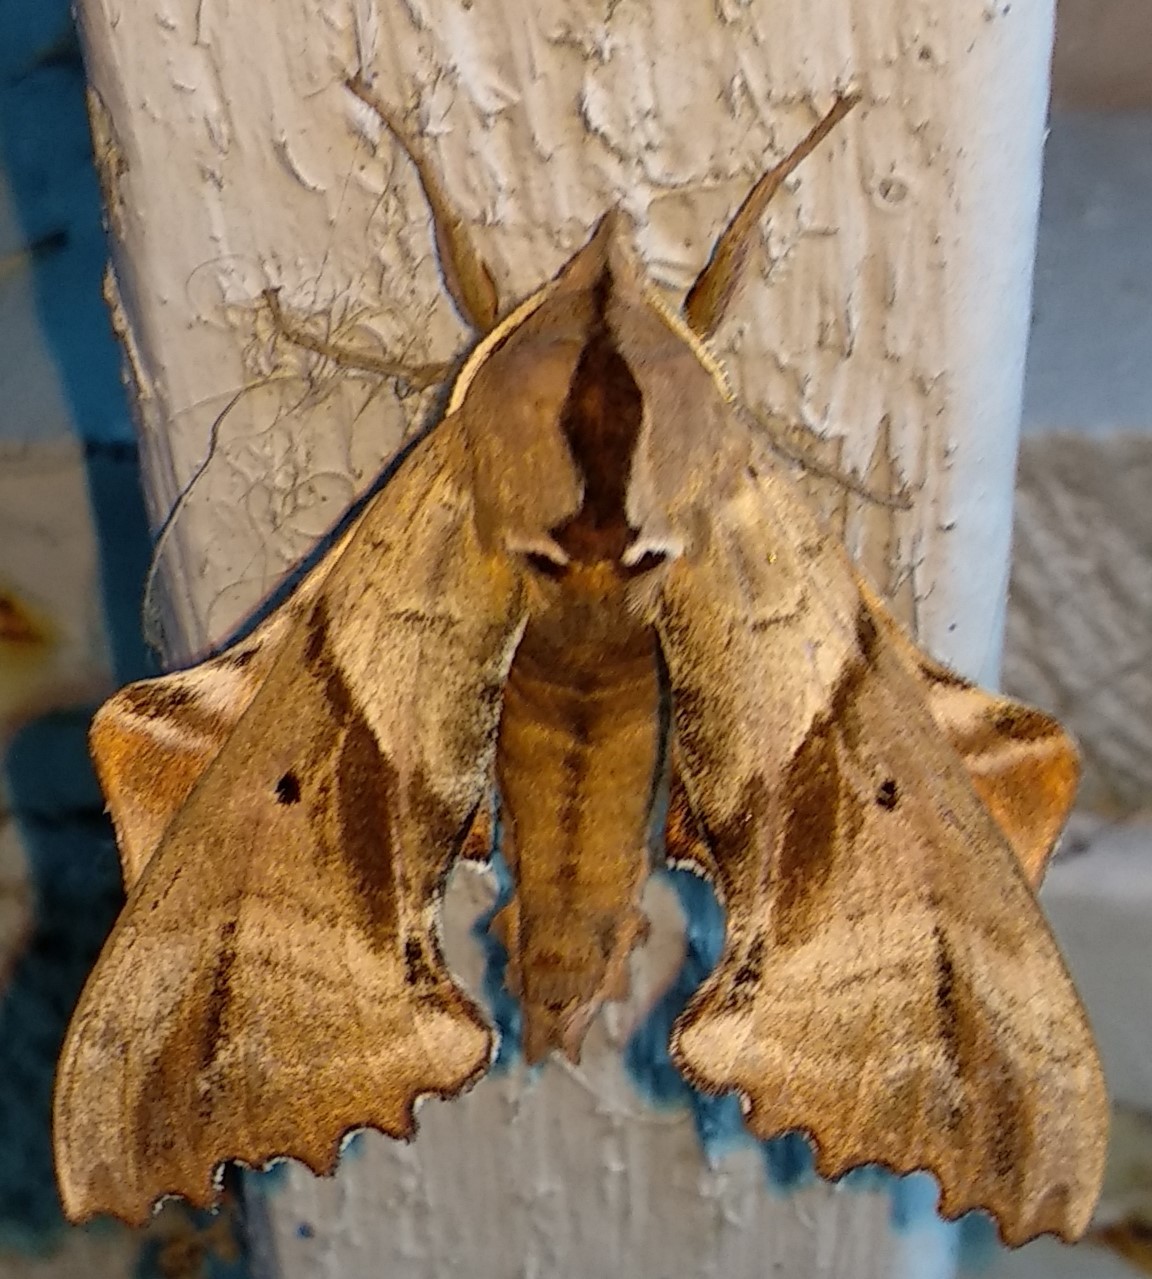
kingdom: Animalia
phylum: Arthropoda
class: Insecta
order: Lepidoptera
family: Sphingidae
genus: Paonias
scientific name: Paonias excaecata
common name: Blind-eyed sphinx
